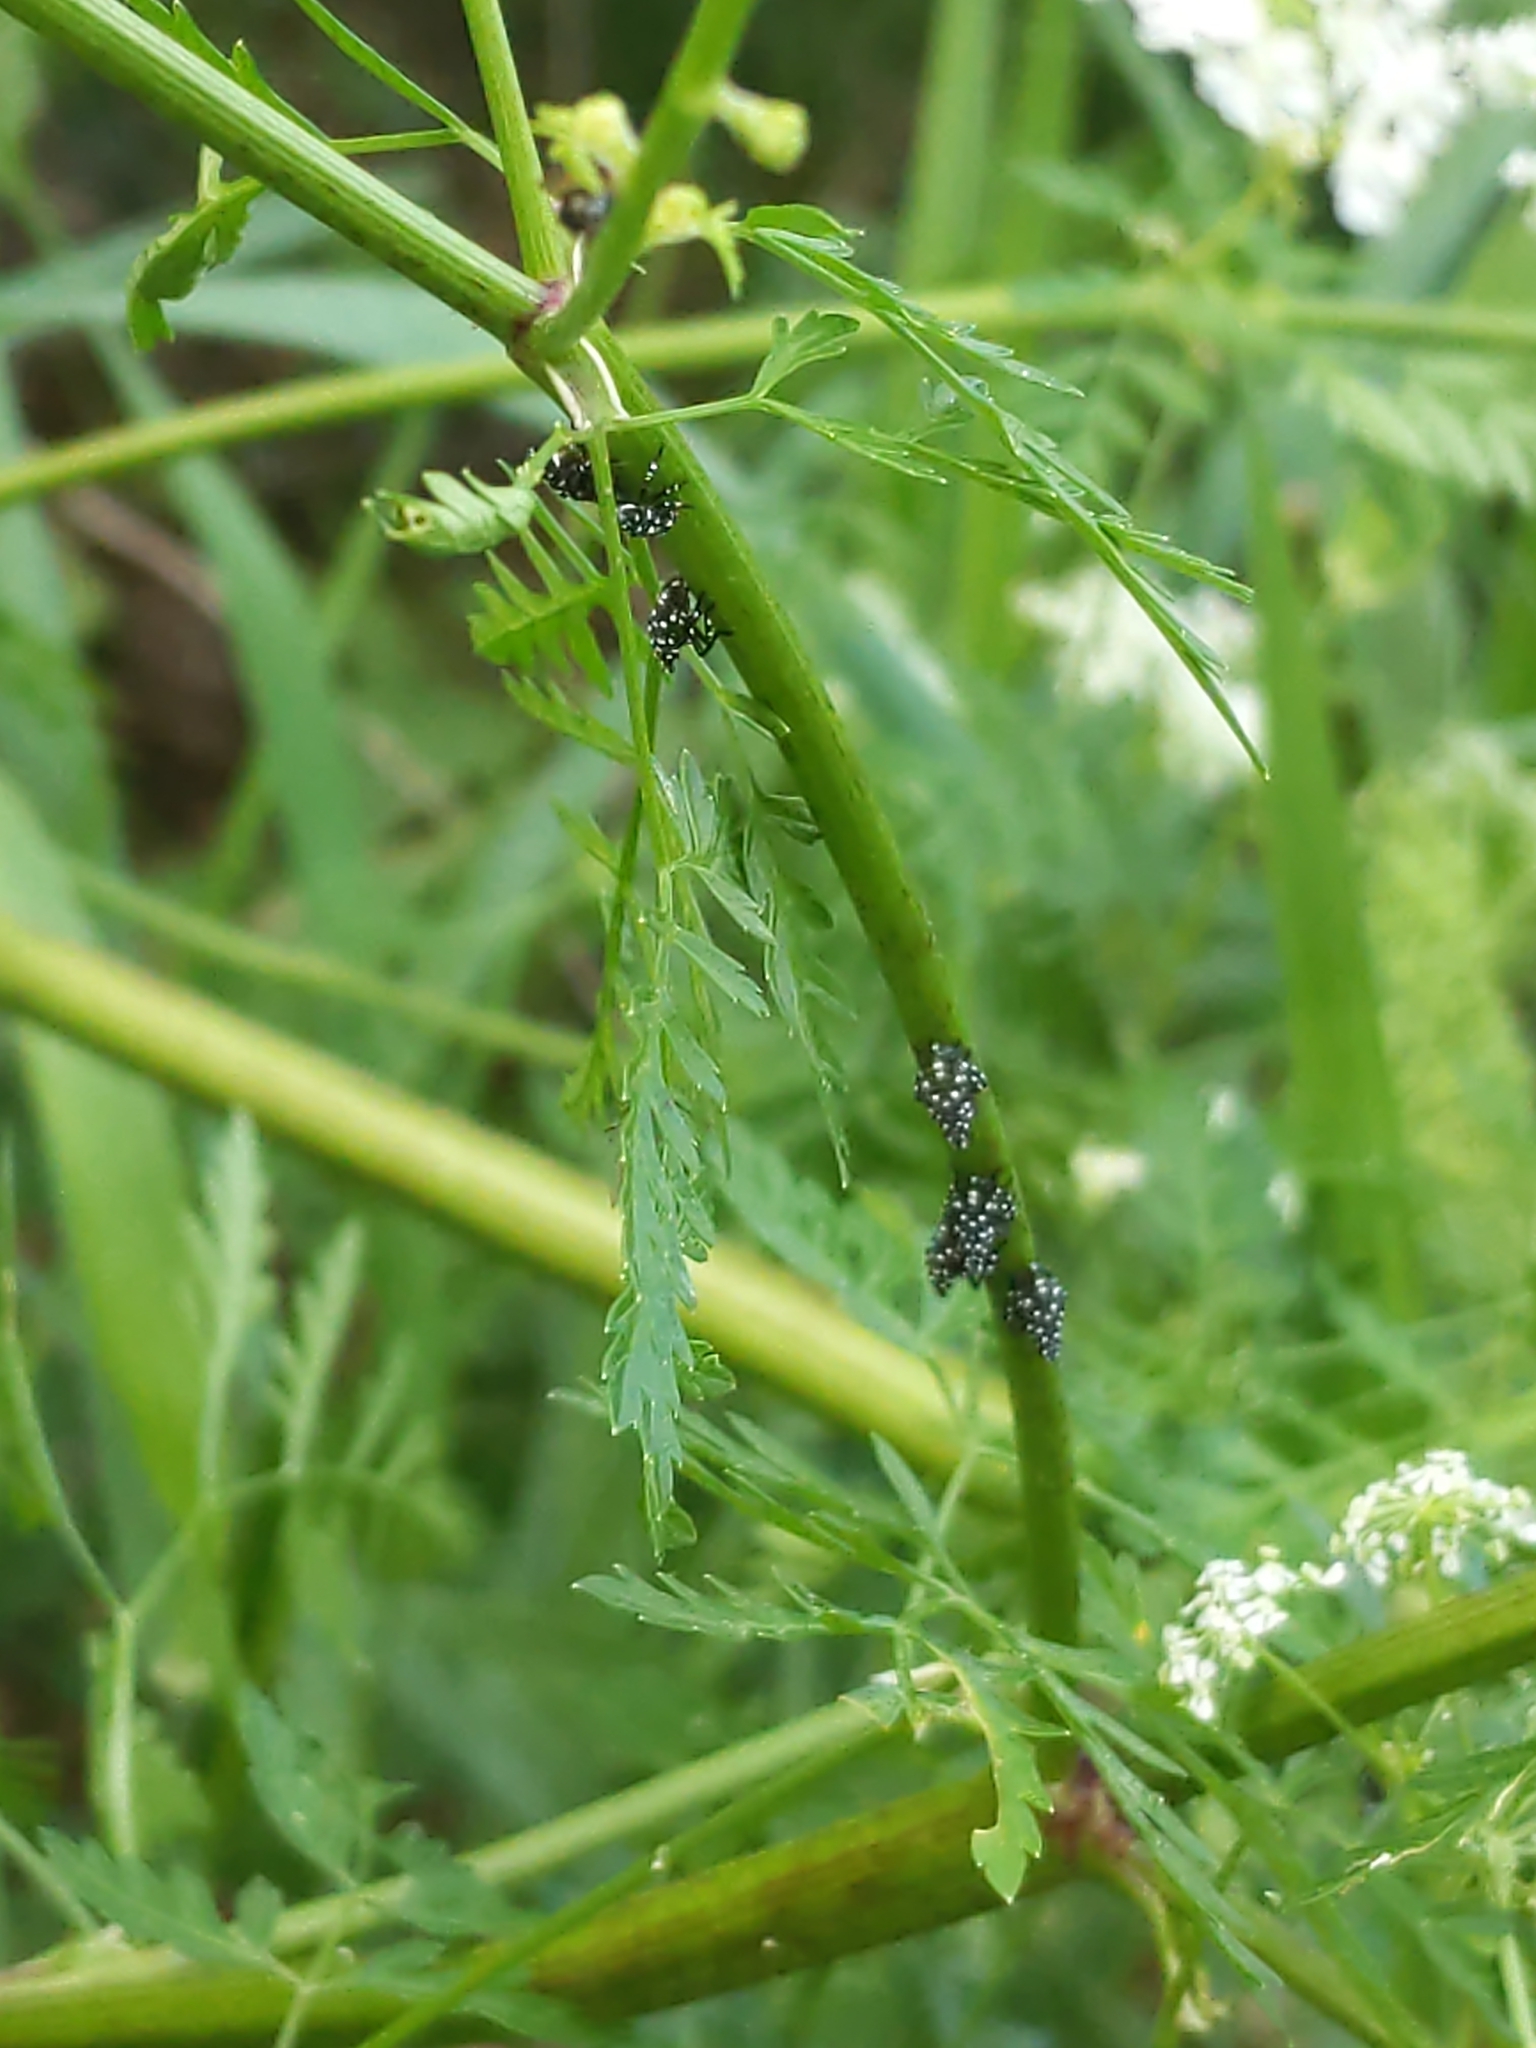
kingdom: Animalia
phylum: Arthropoda
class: Insecta
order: Hemiptera
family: Fulgoridae
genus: Lycorma
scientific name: Lycorma delicatula
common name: Spotted lanternfly
